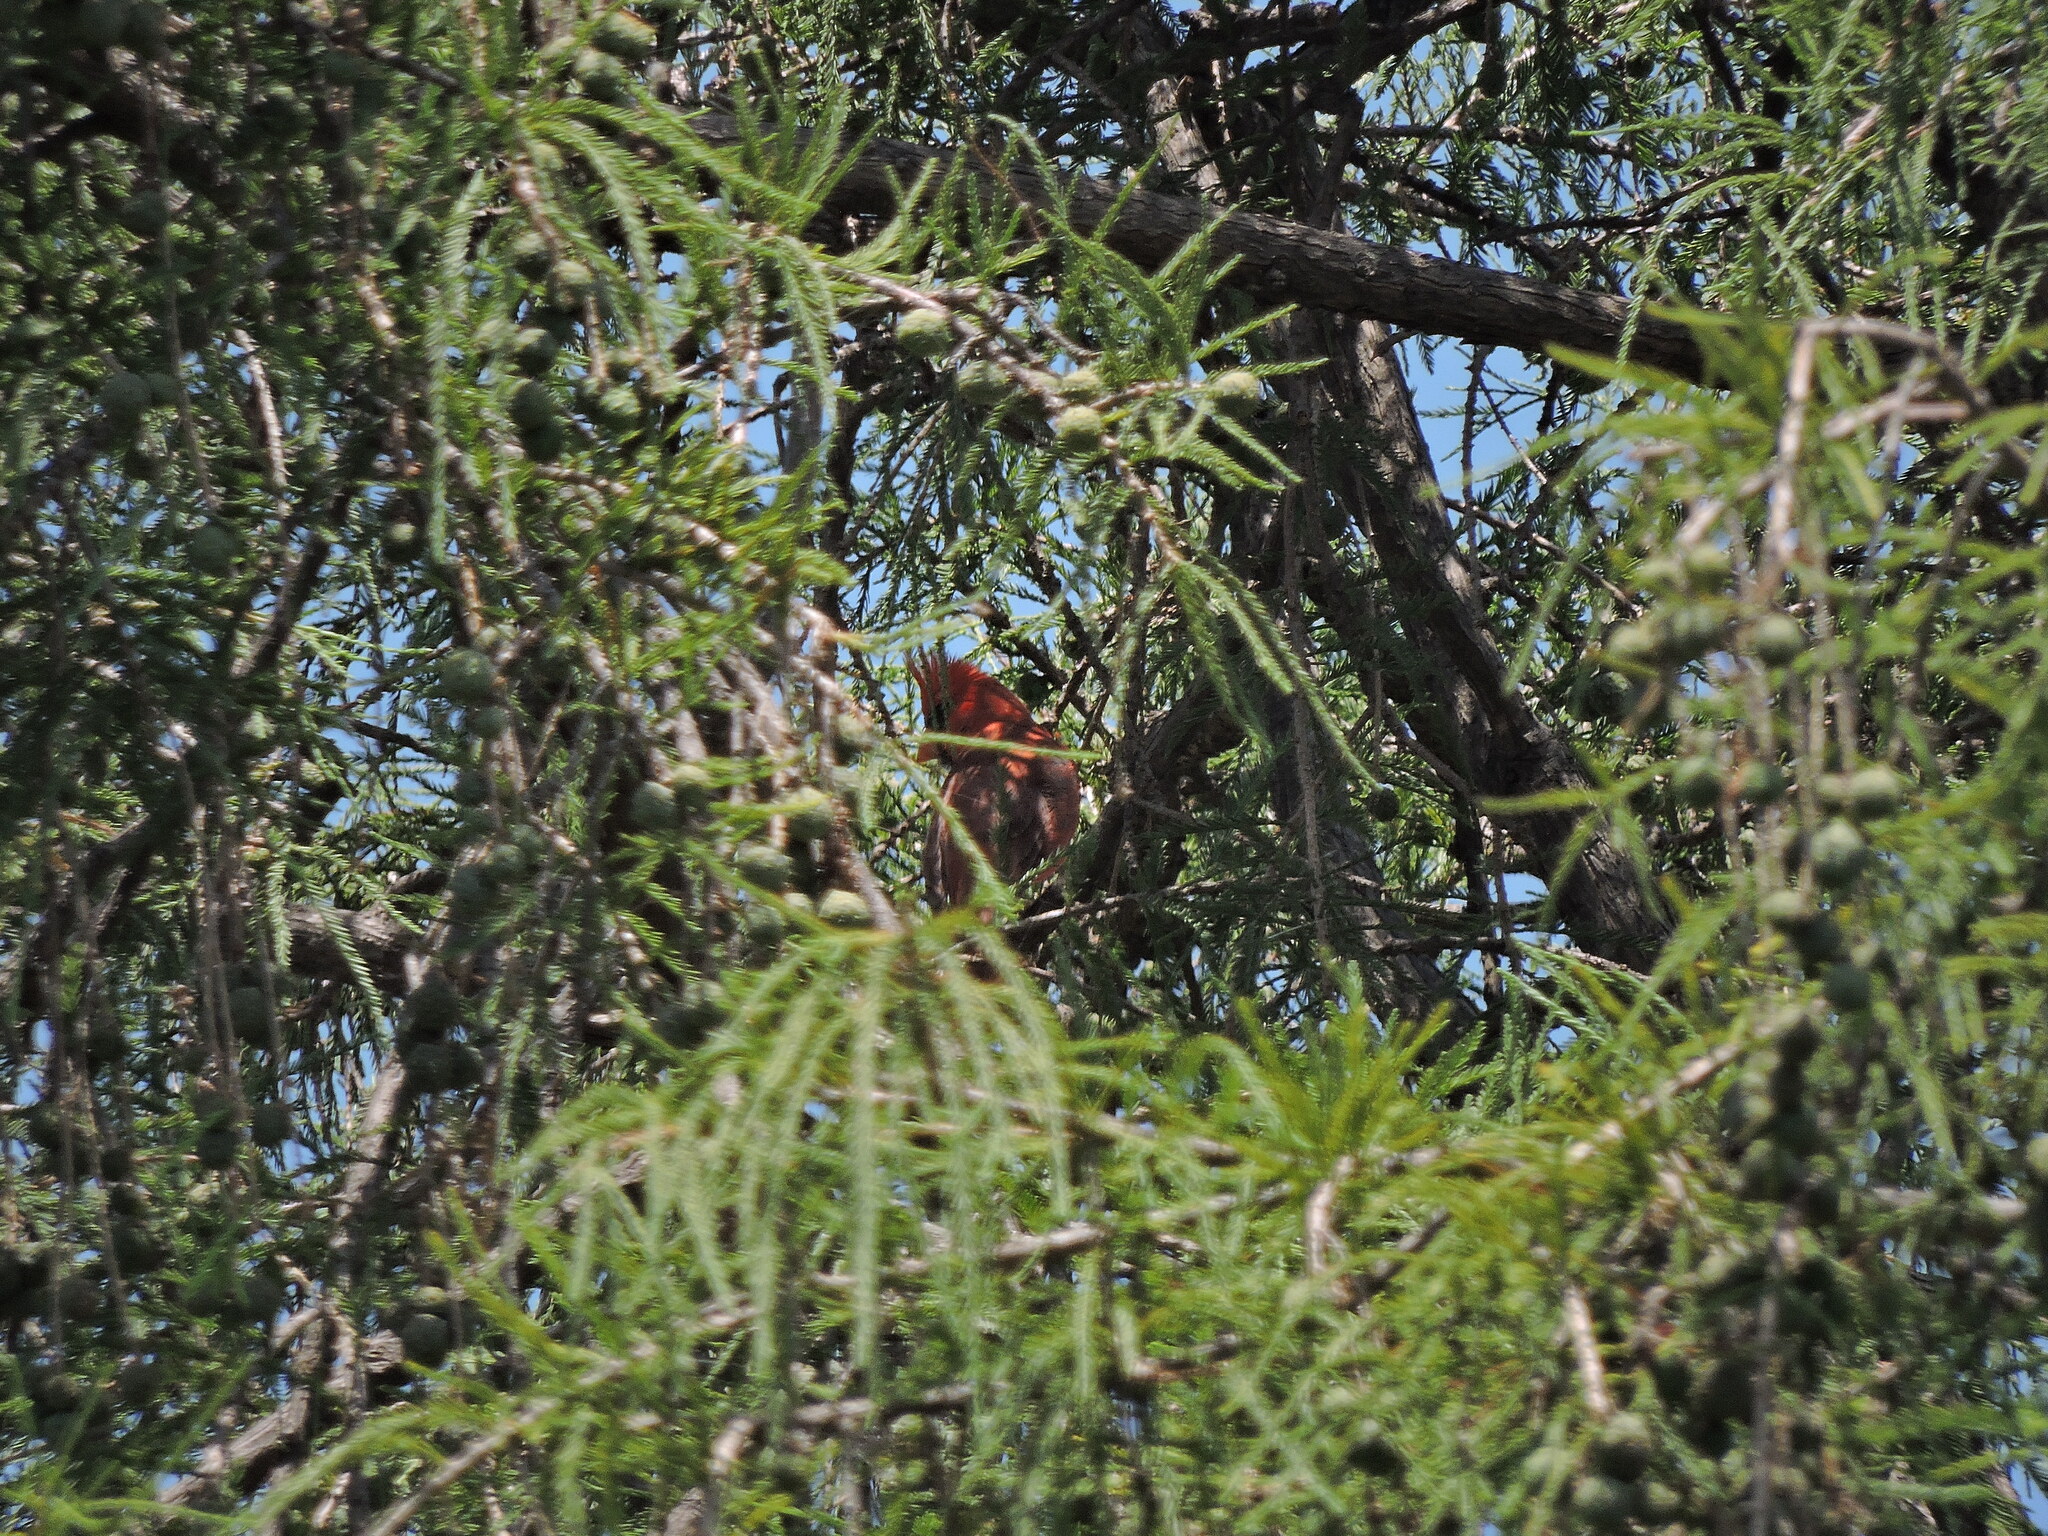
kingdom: Animalia
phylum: Chordata
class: Aves
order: Passeriformes
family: Cardinalidae
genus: Cardinalis
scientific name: Cardinalis cardinalis
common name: Northern cardinal
